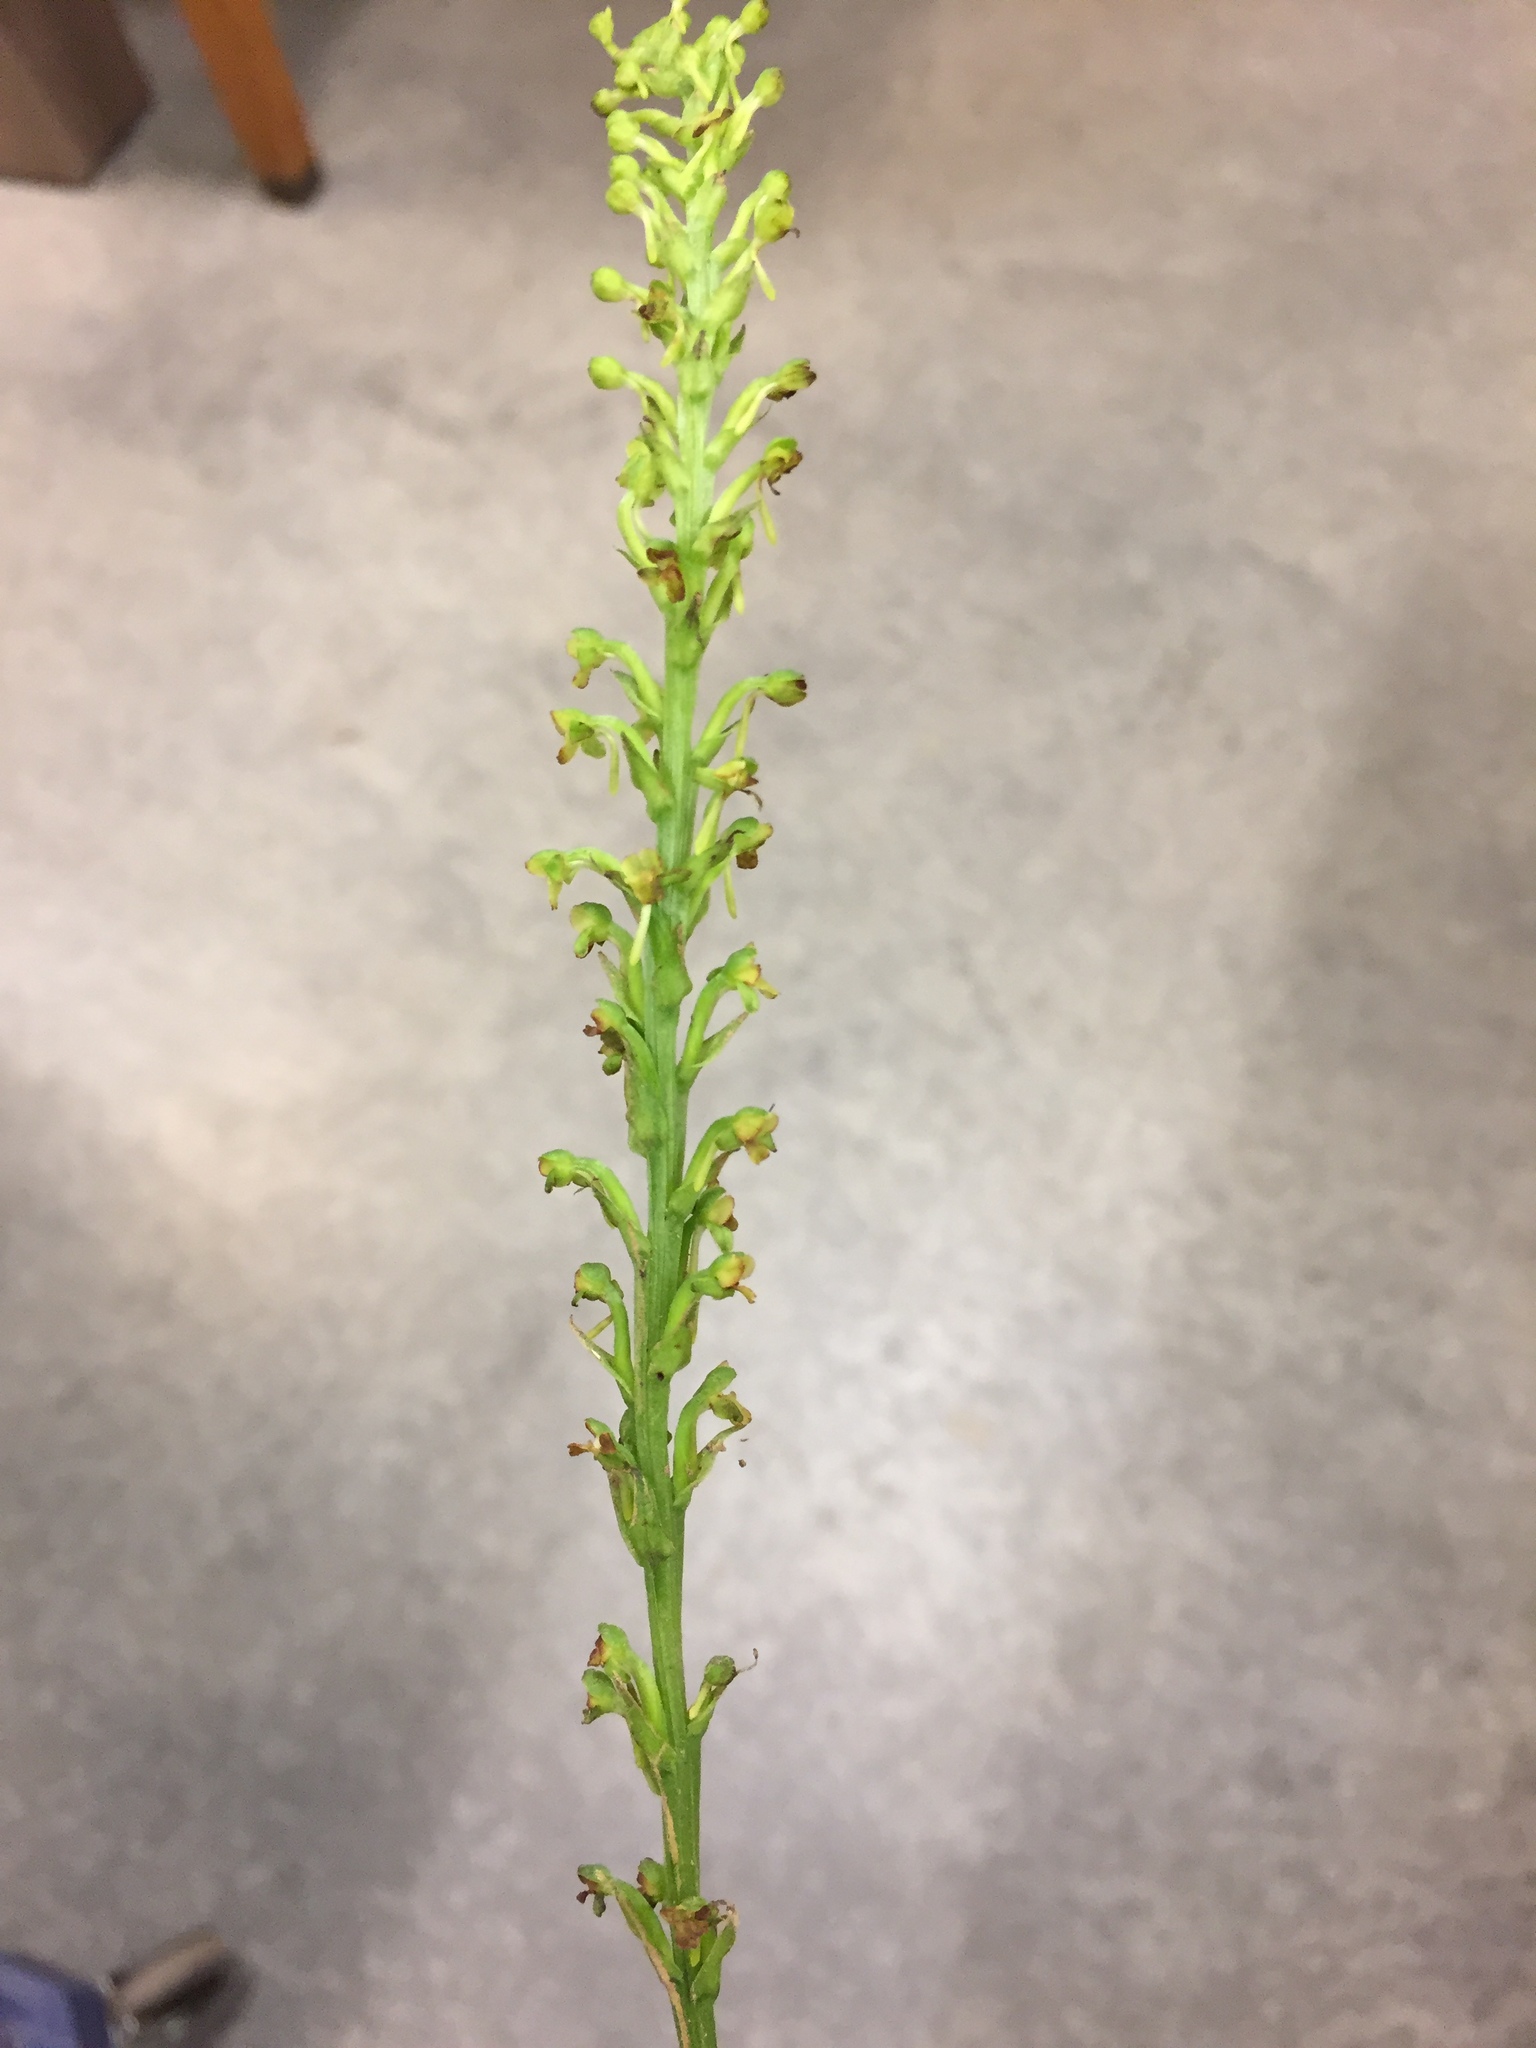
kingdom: Plantae
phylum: Tracheophyta
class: Liliopsida
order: Asparagales
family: Orchidaceae
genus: Platanthera
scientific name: Platanthera flava
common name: Gypsy-spikes
